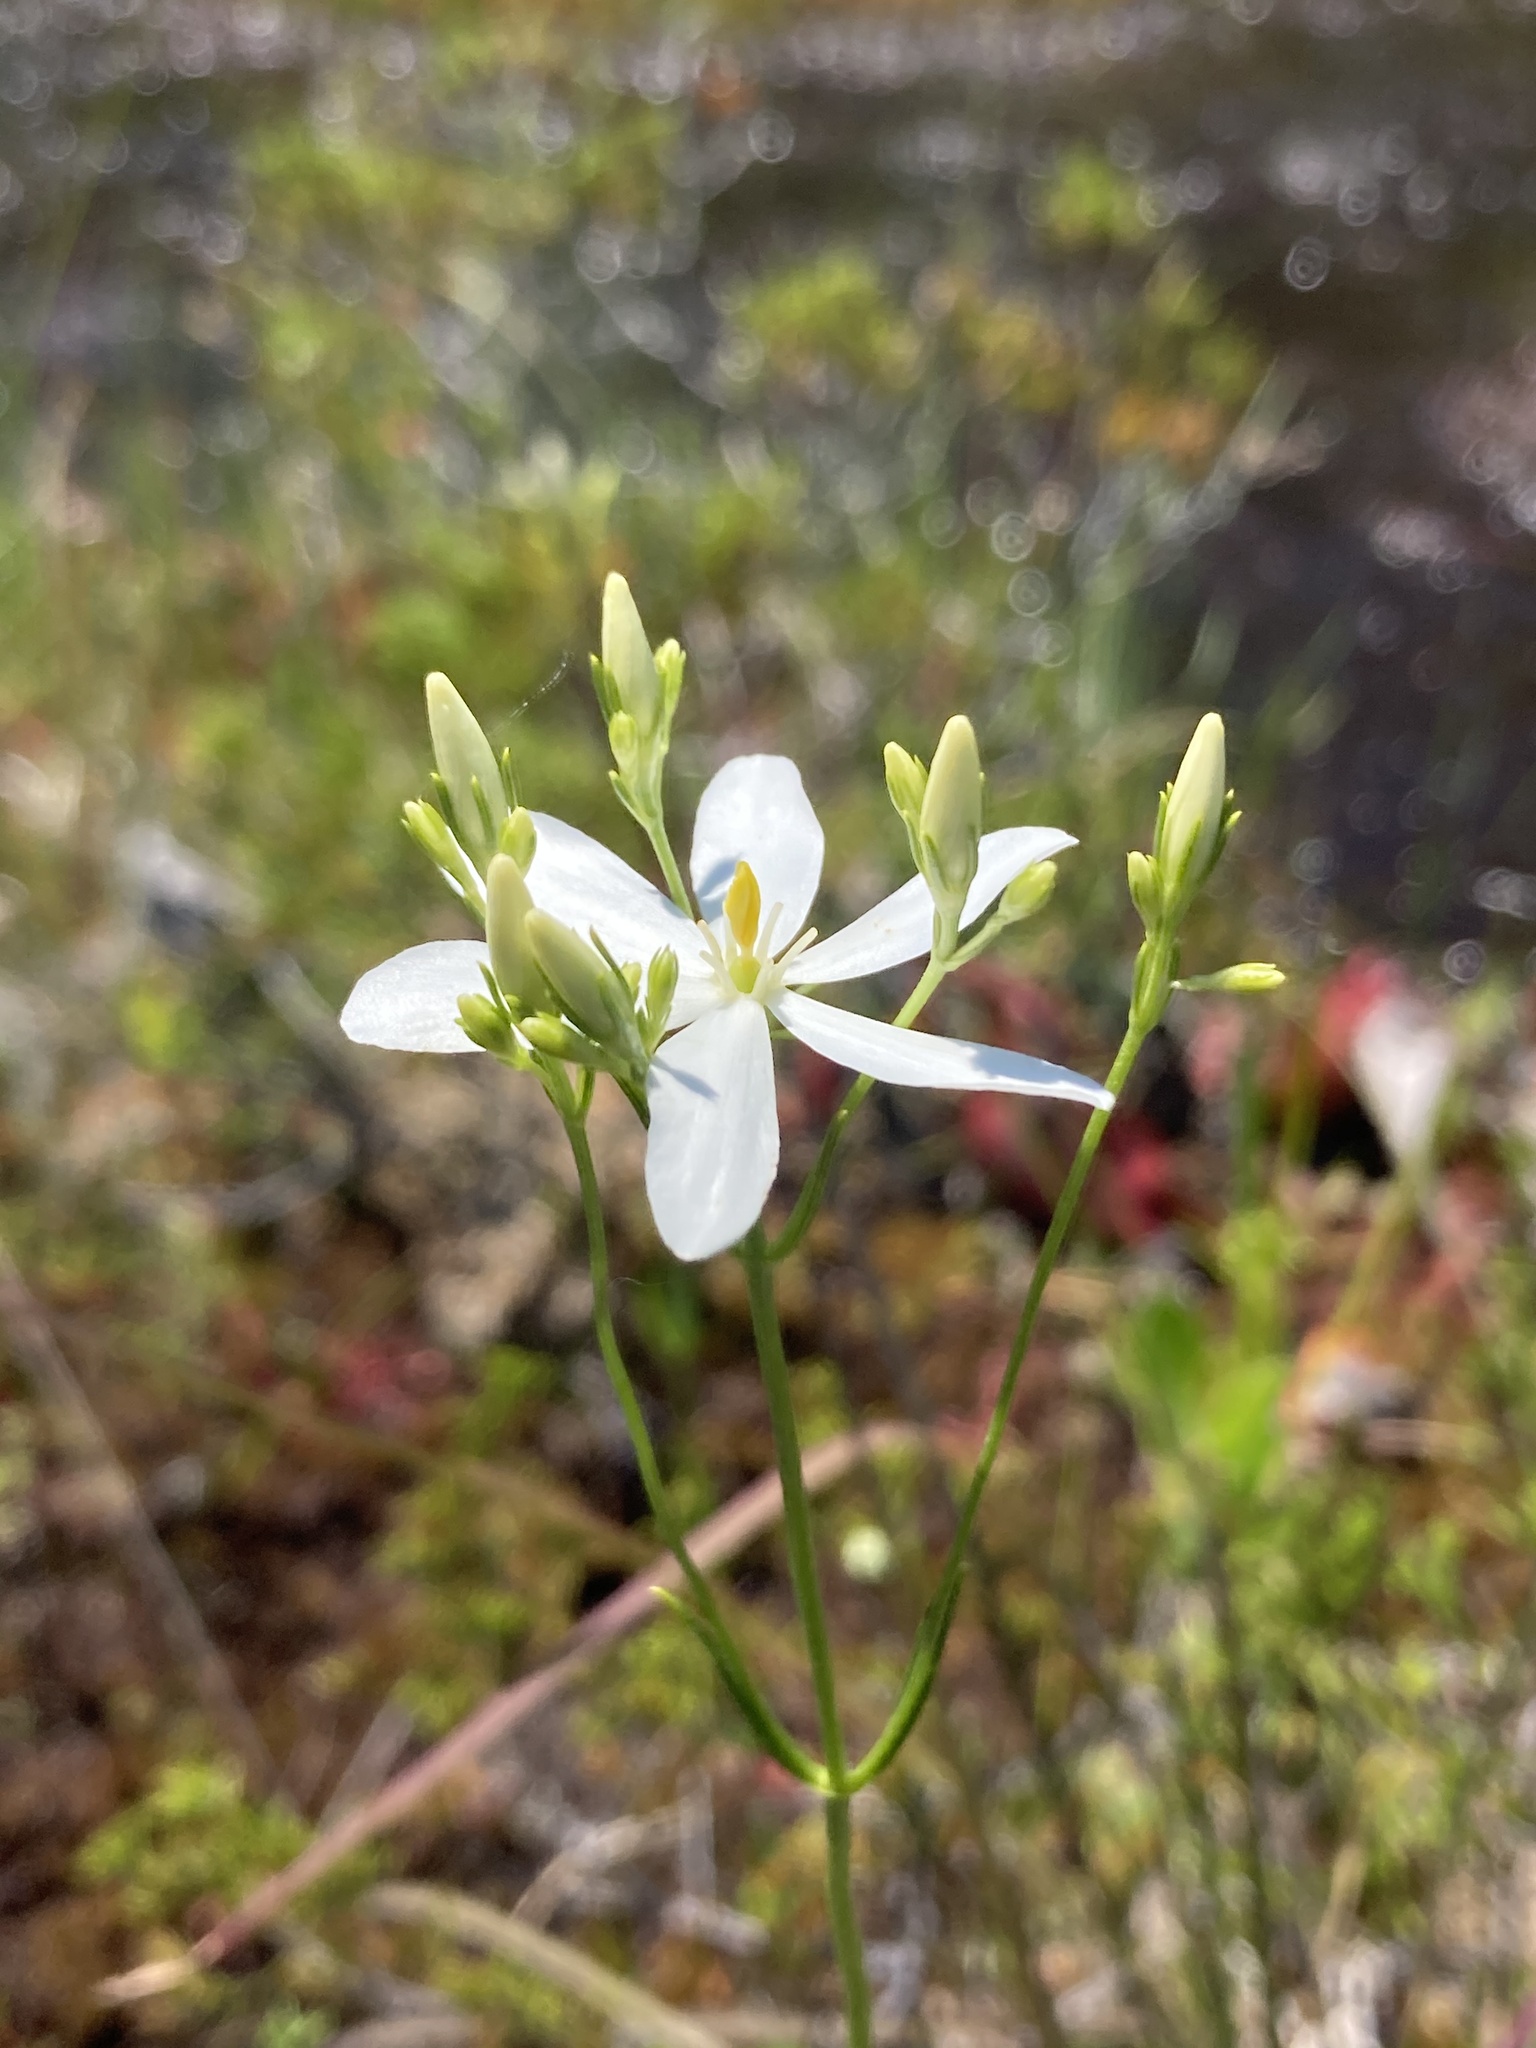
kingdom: Plantae
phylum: Tracheophyta
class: Magnoliopsida
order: Gentianales
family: Gentianaceae
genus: Sabatia
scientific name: Sabatia difformis
